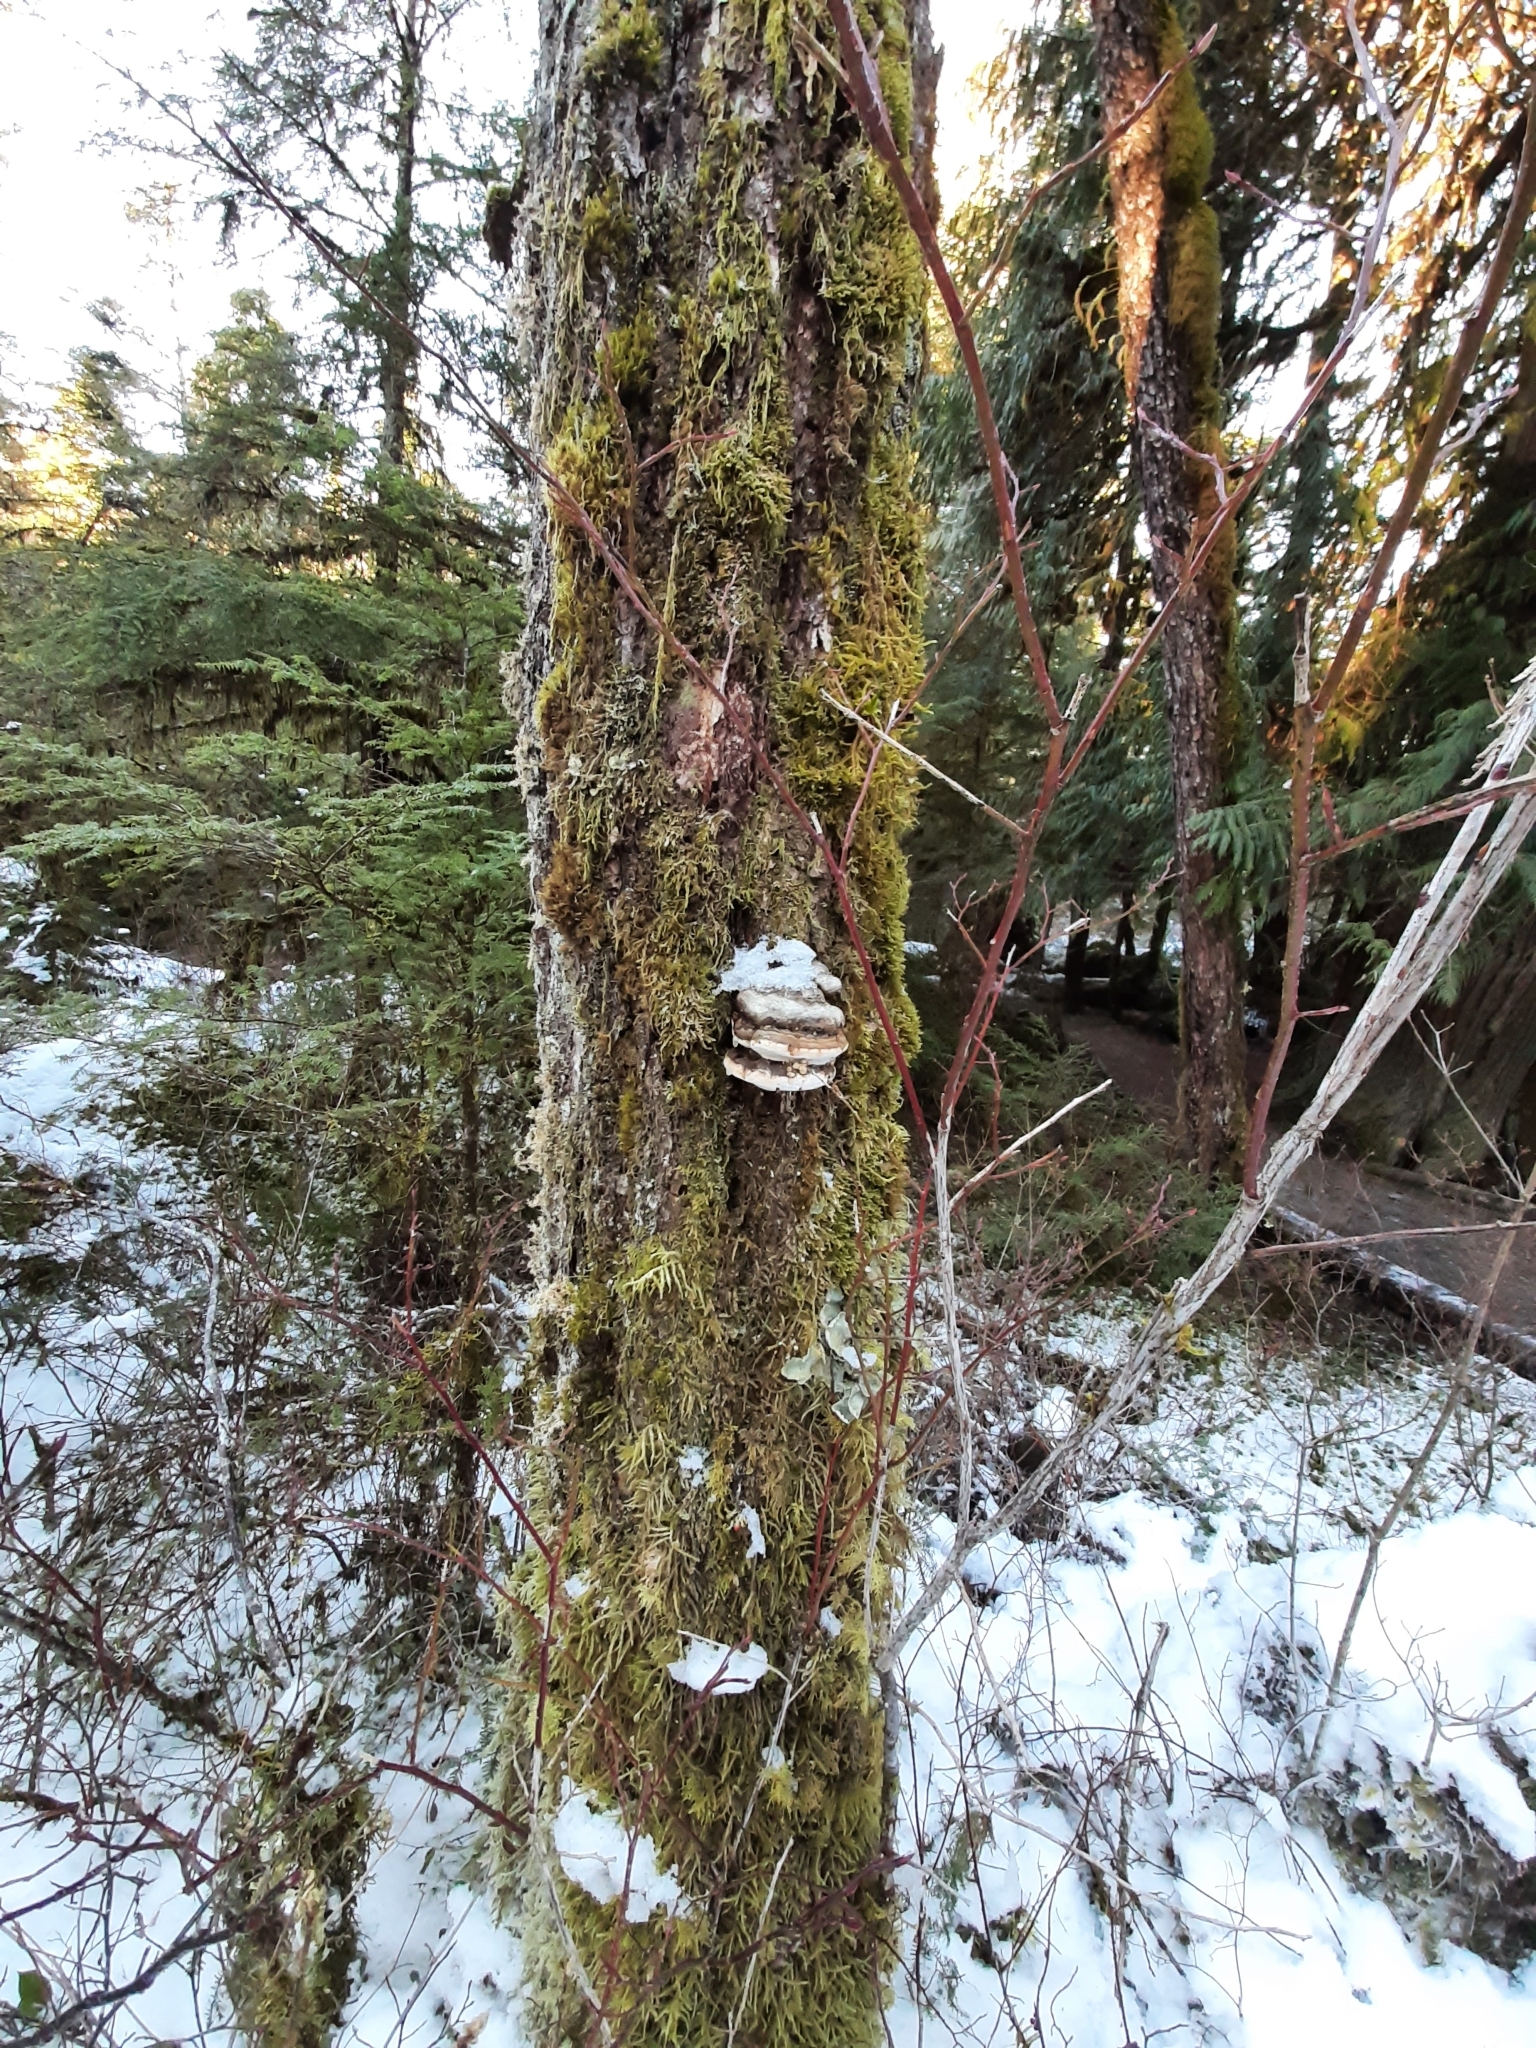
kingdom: Fungi
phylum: Basidiomycota
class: Agaricomycetes
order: Polyporales
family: Fomitopsidaceae
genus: Fomitopsis
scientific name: Fomitopsis ochracea
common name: American brown fomitopsis
